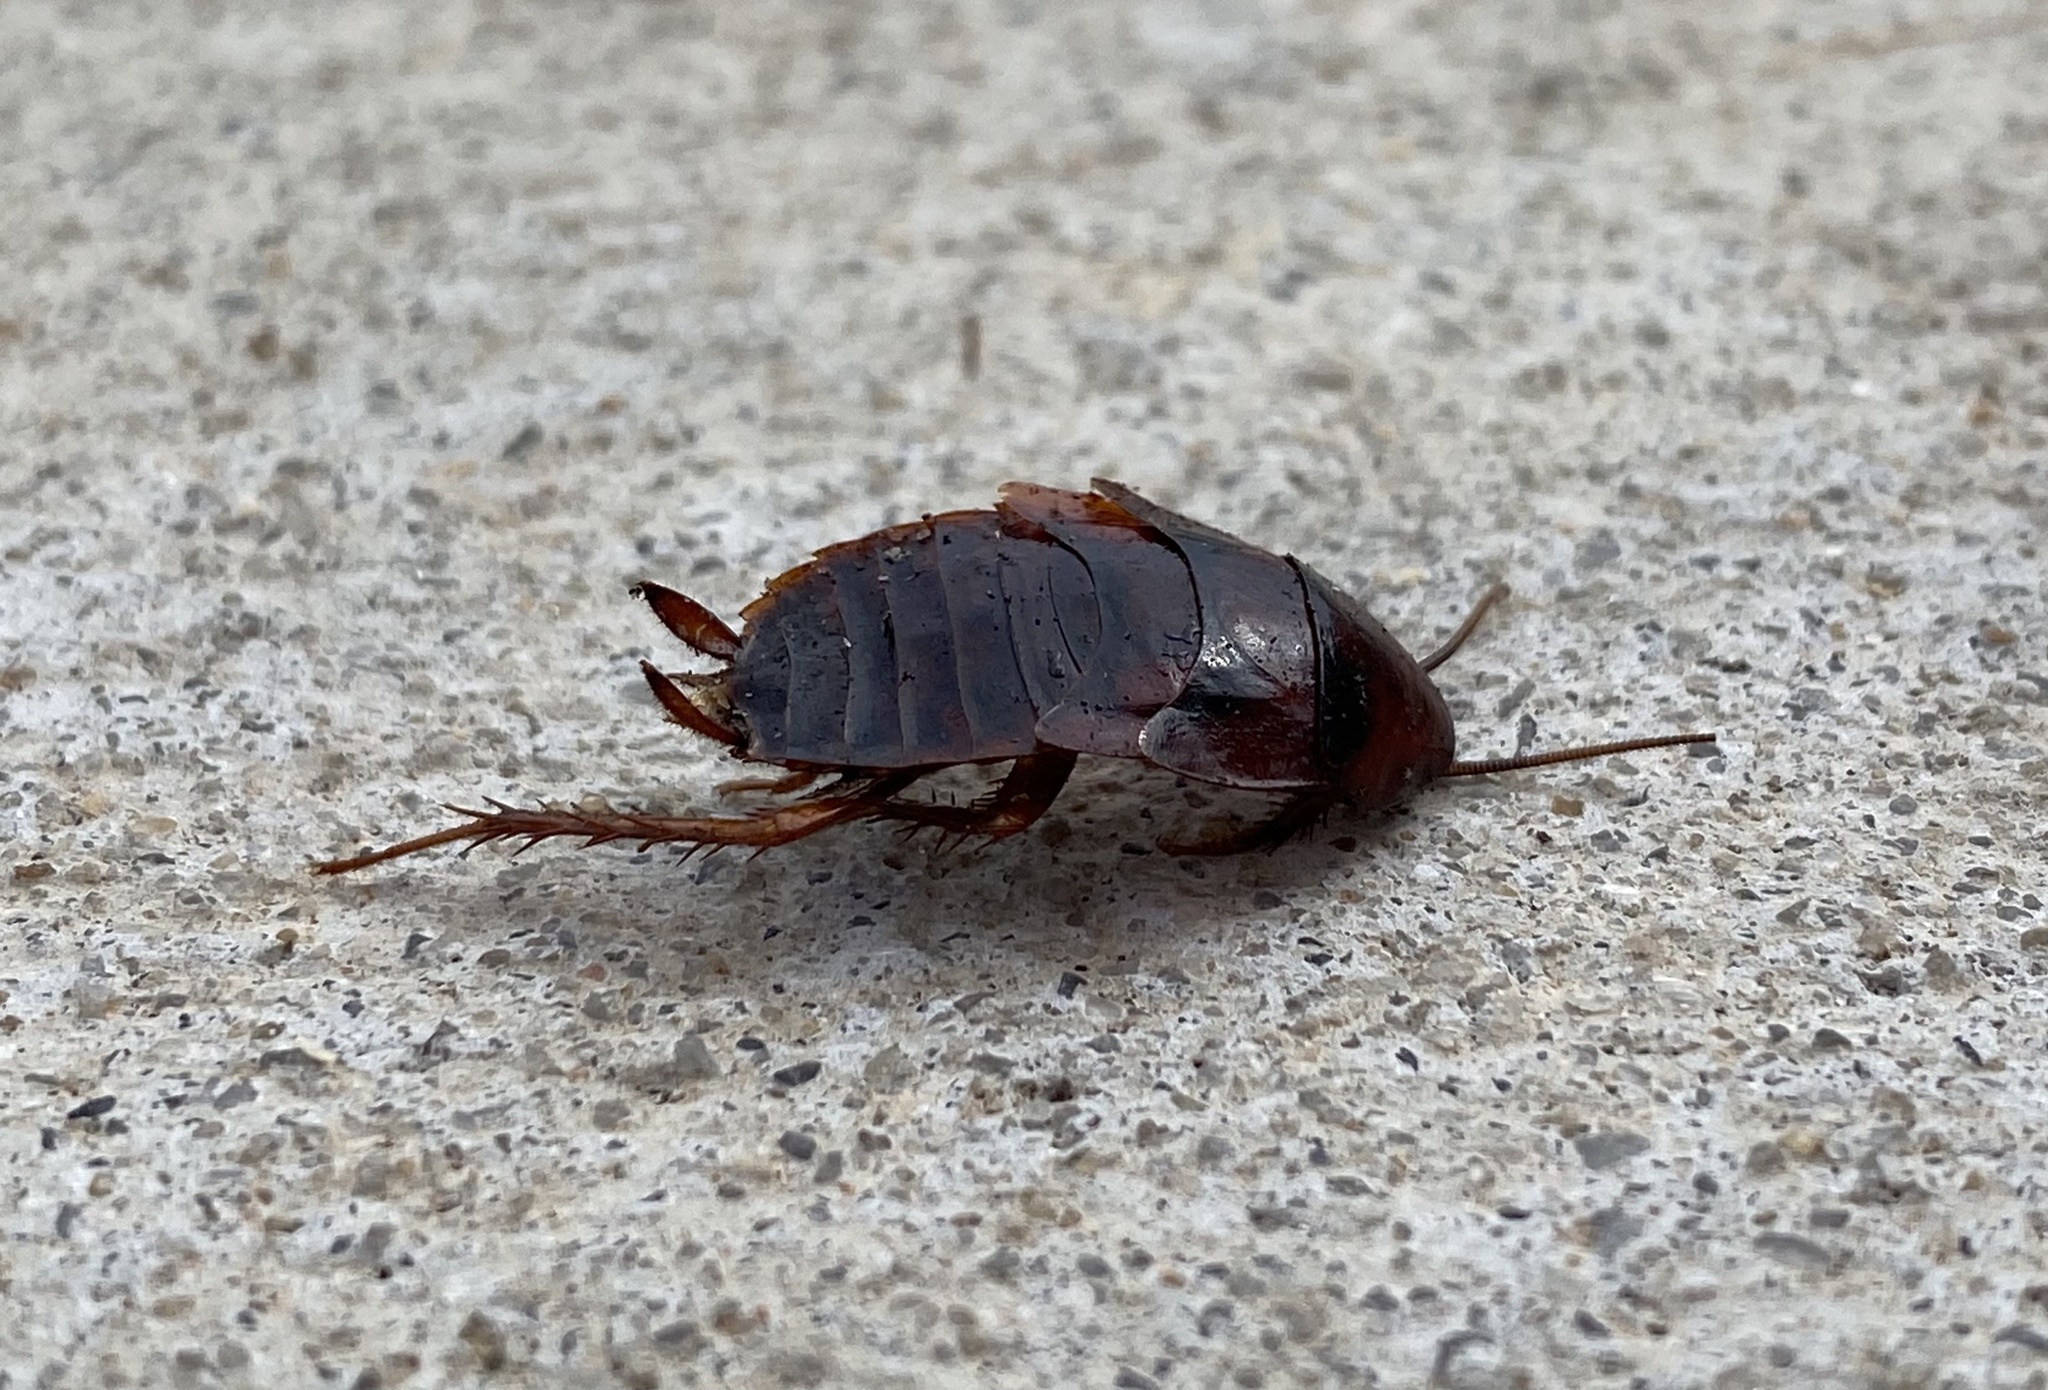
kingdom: Animalia
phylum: Arthropoda
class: Insecta
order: Blattodea
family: Blattidae
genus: Periplaneta
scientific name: Periplaneta fuliginosa
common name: Smokeybrown cockroad
